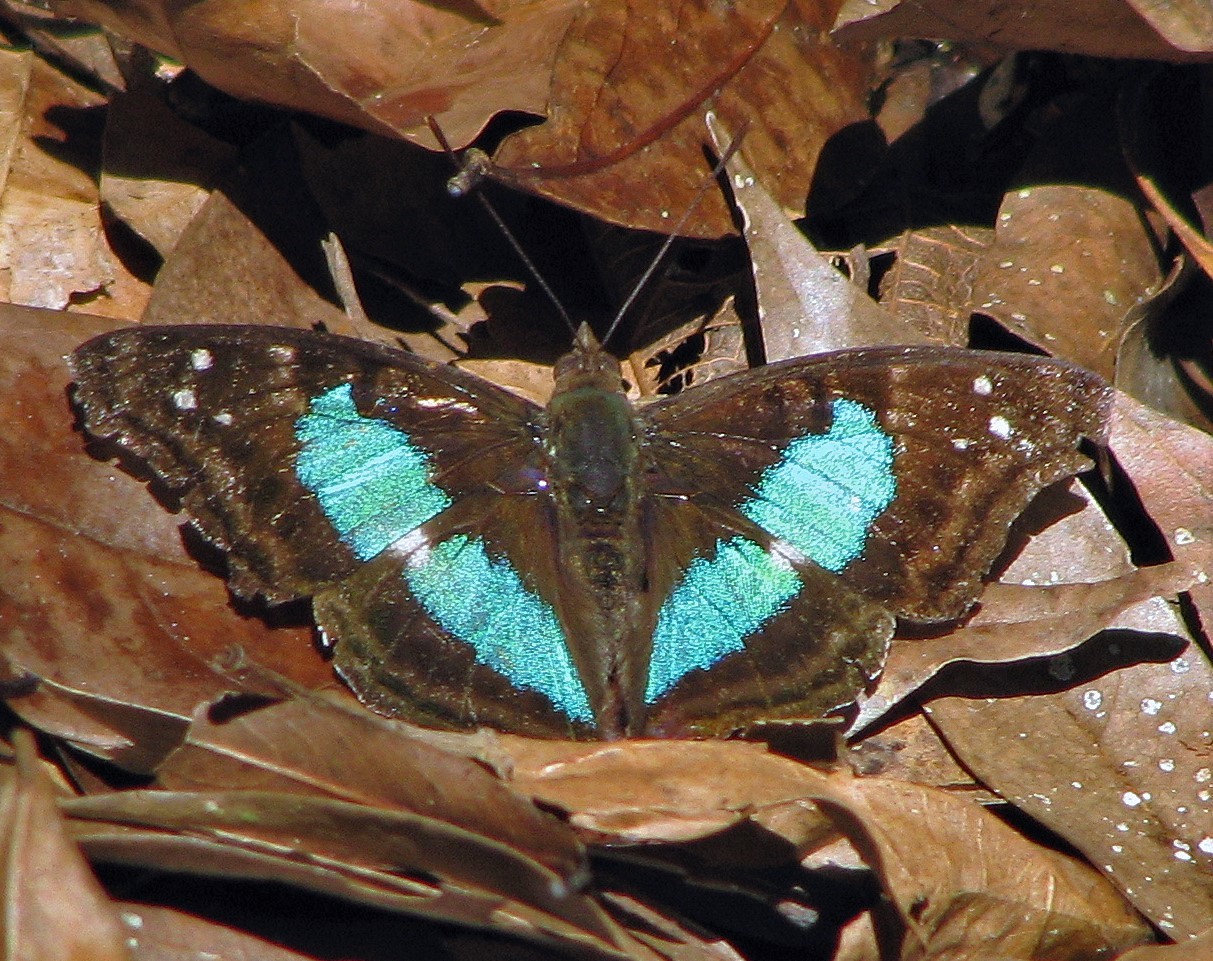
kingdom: Animalia
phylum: Arthropoda
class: Insecta
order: Lepidoptera
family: Nymphalidae
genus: Doxocopa
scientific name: Doxocopa laurentia
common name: Turquoise emperor
